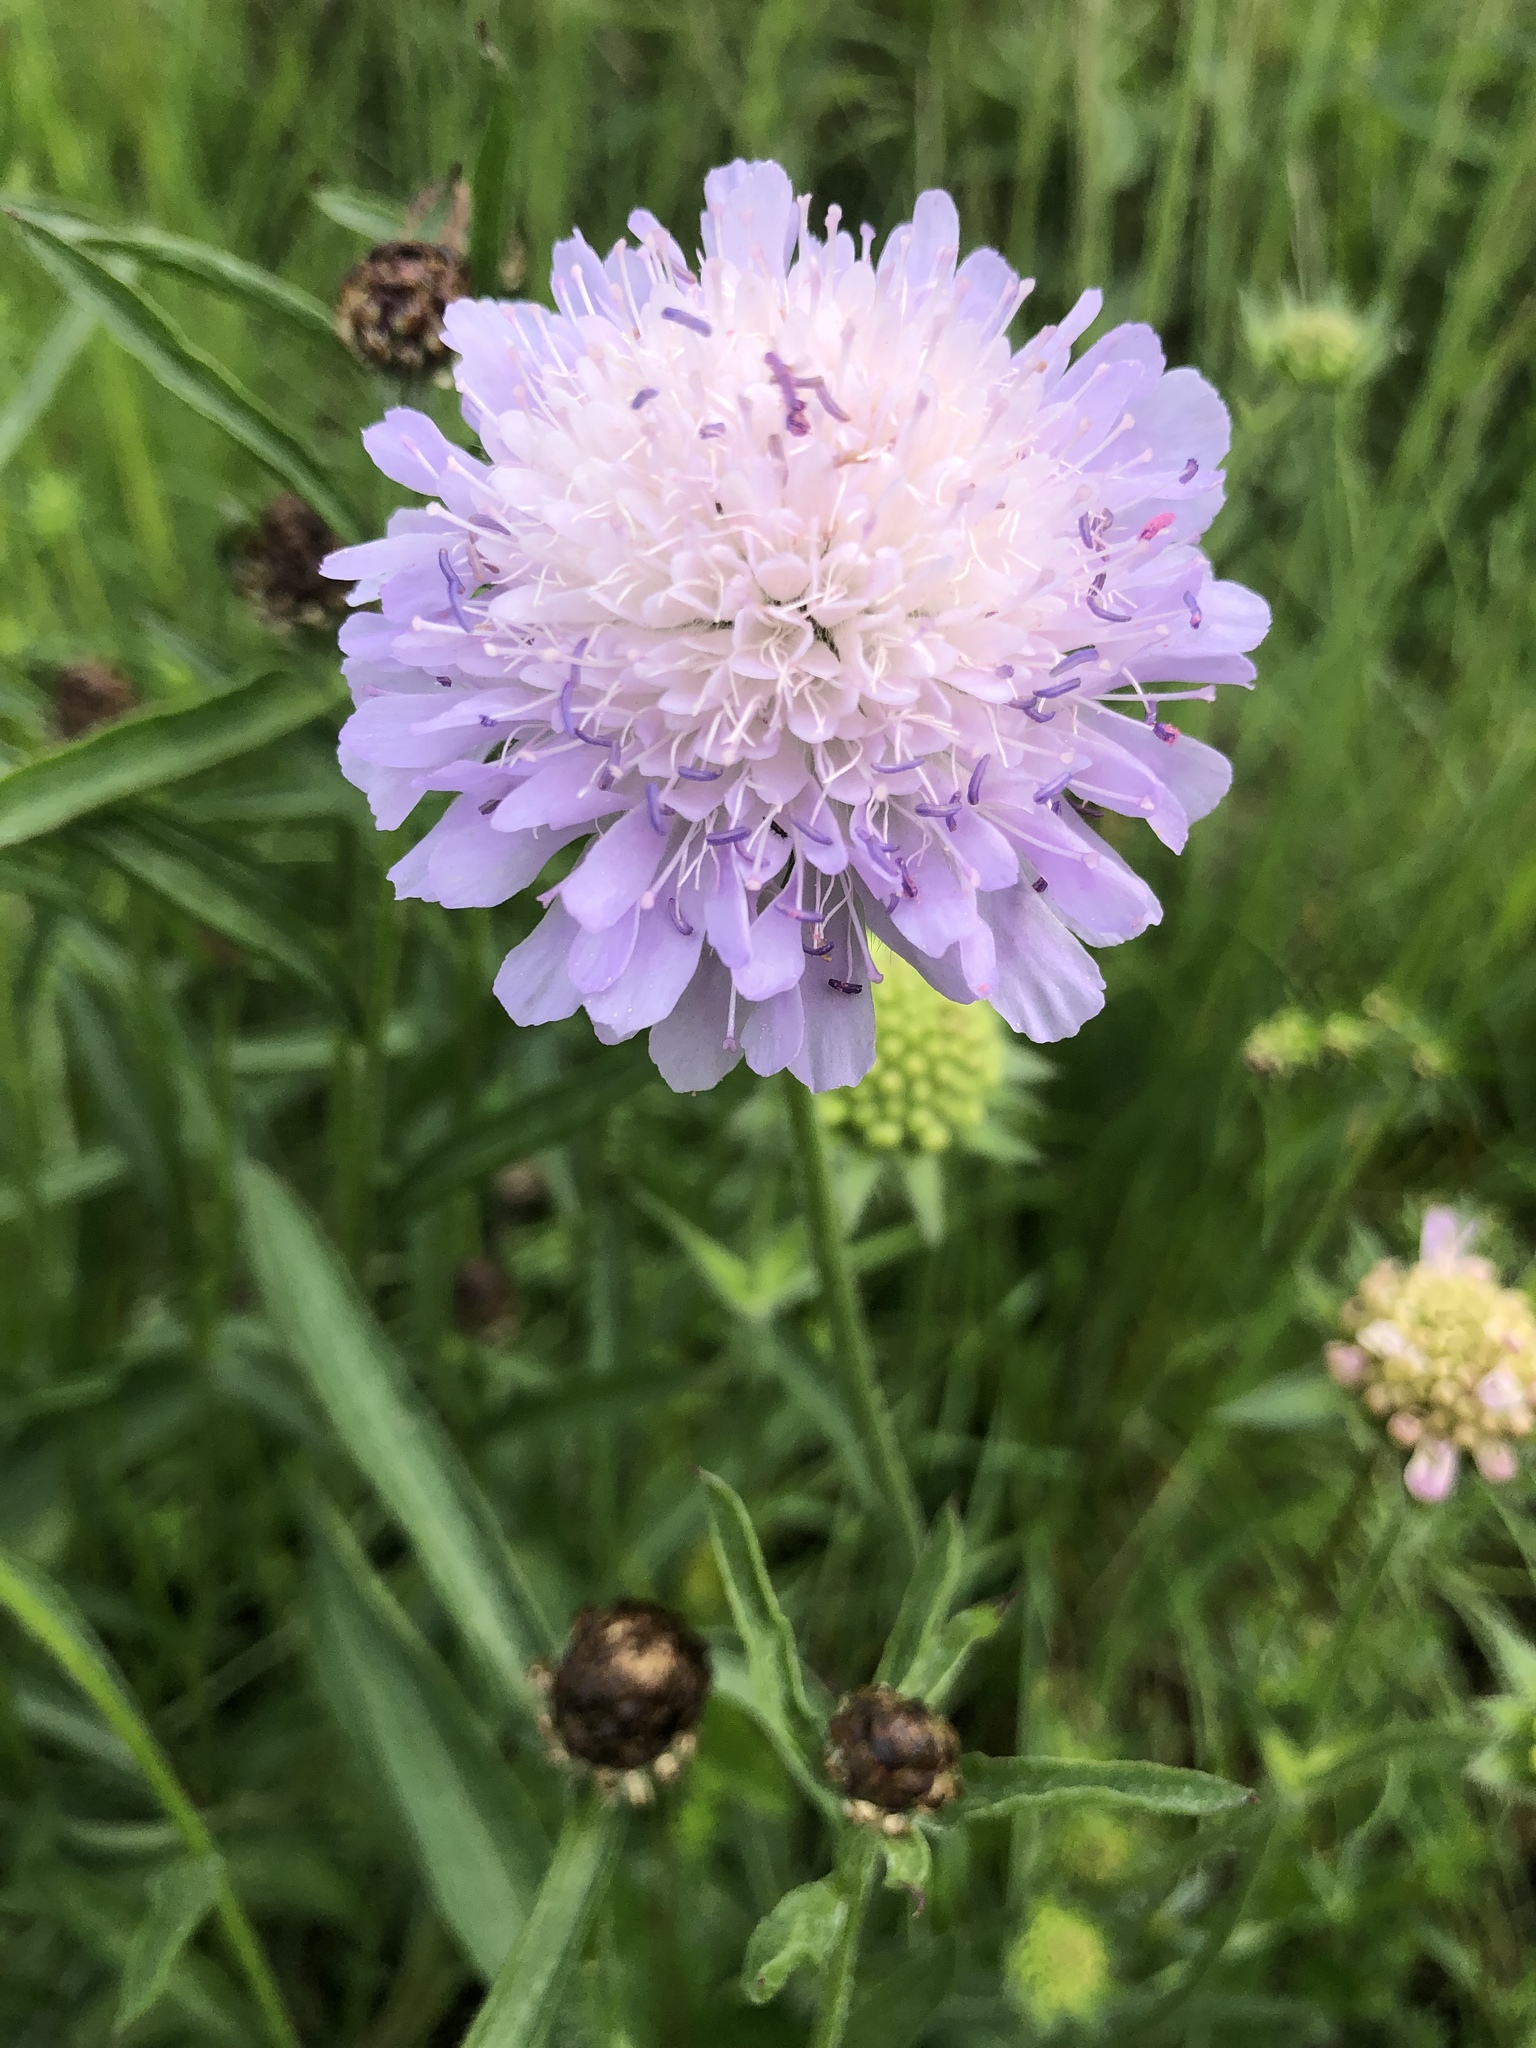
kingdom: Plantae
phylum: Tracheophyta
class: Magnoliopsida
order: Dipsacales
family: Caprifoliaceae
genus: Knautia
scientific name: Knautia arvensis
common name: Field scabiosa
